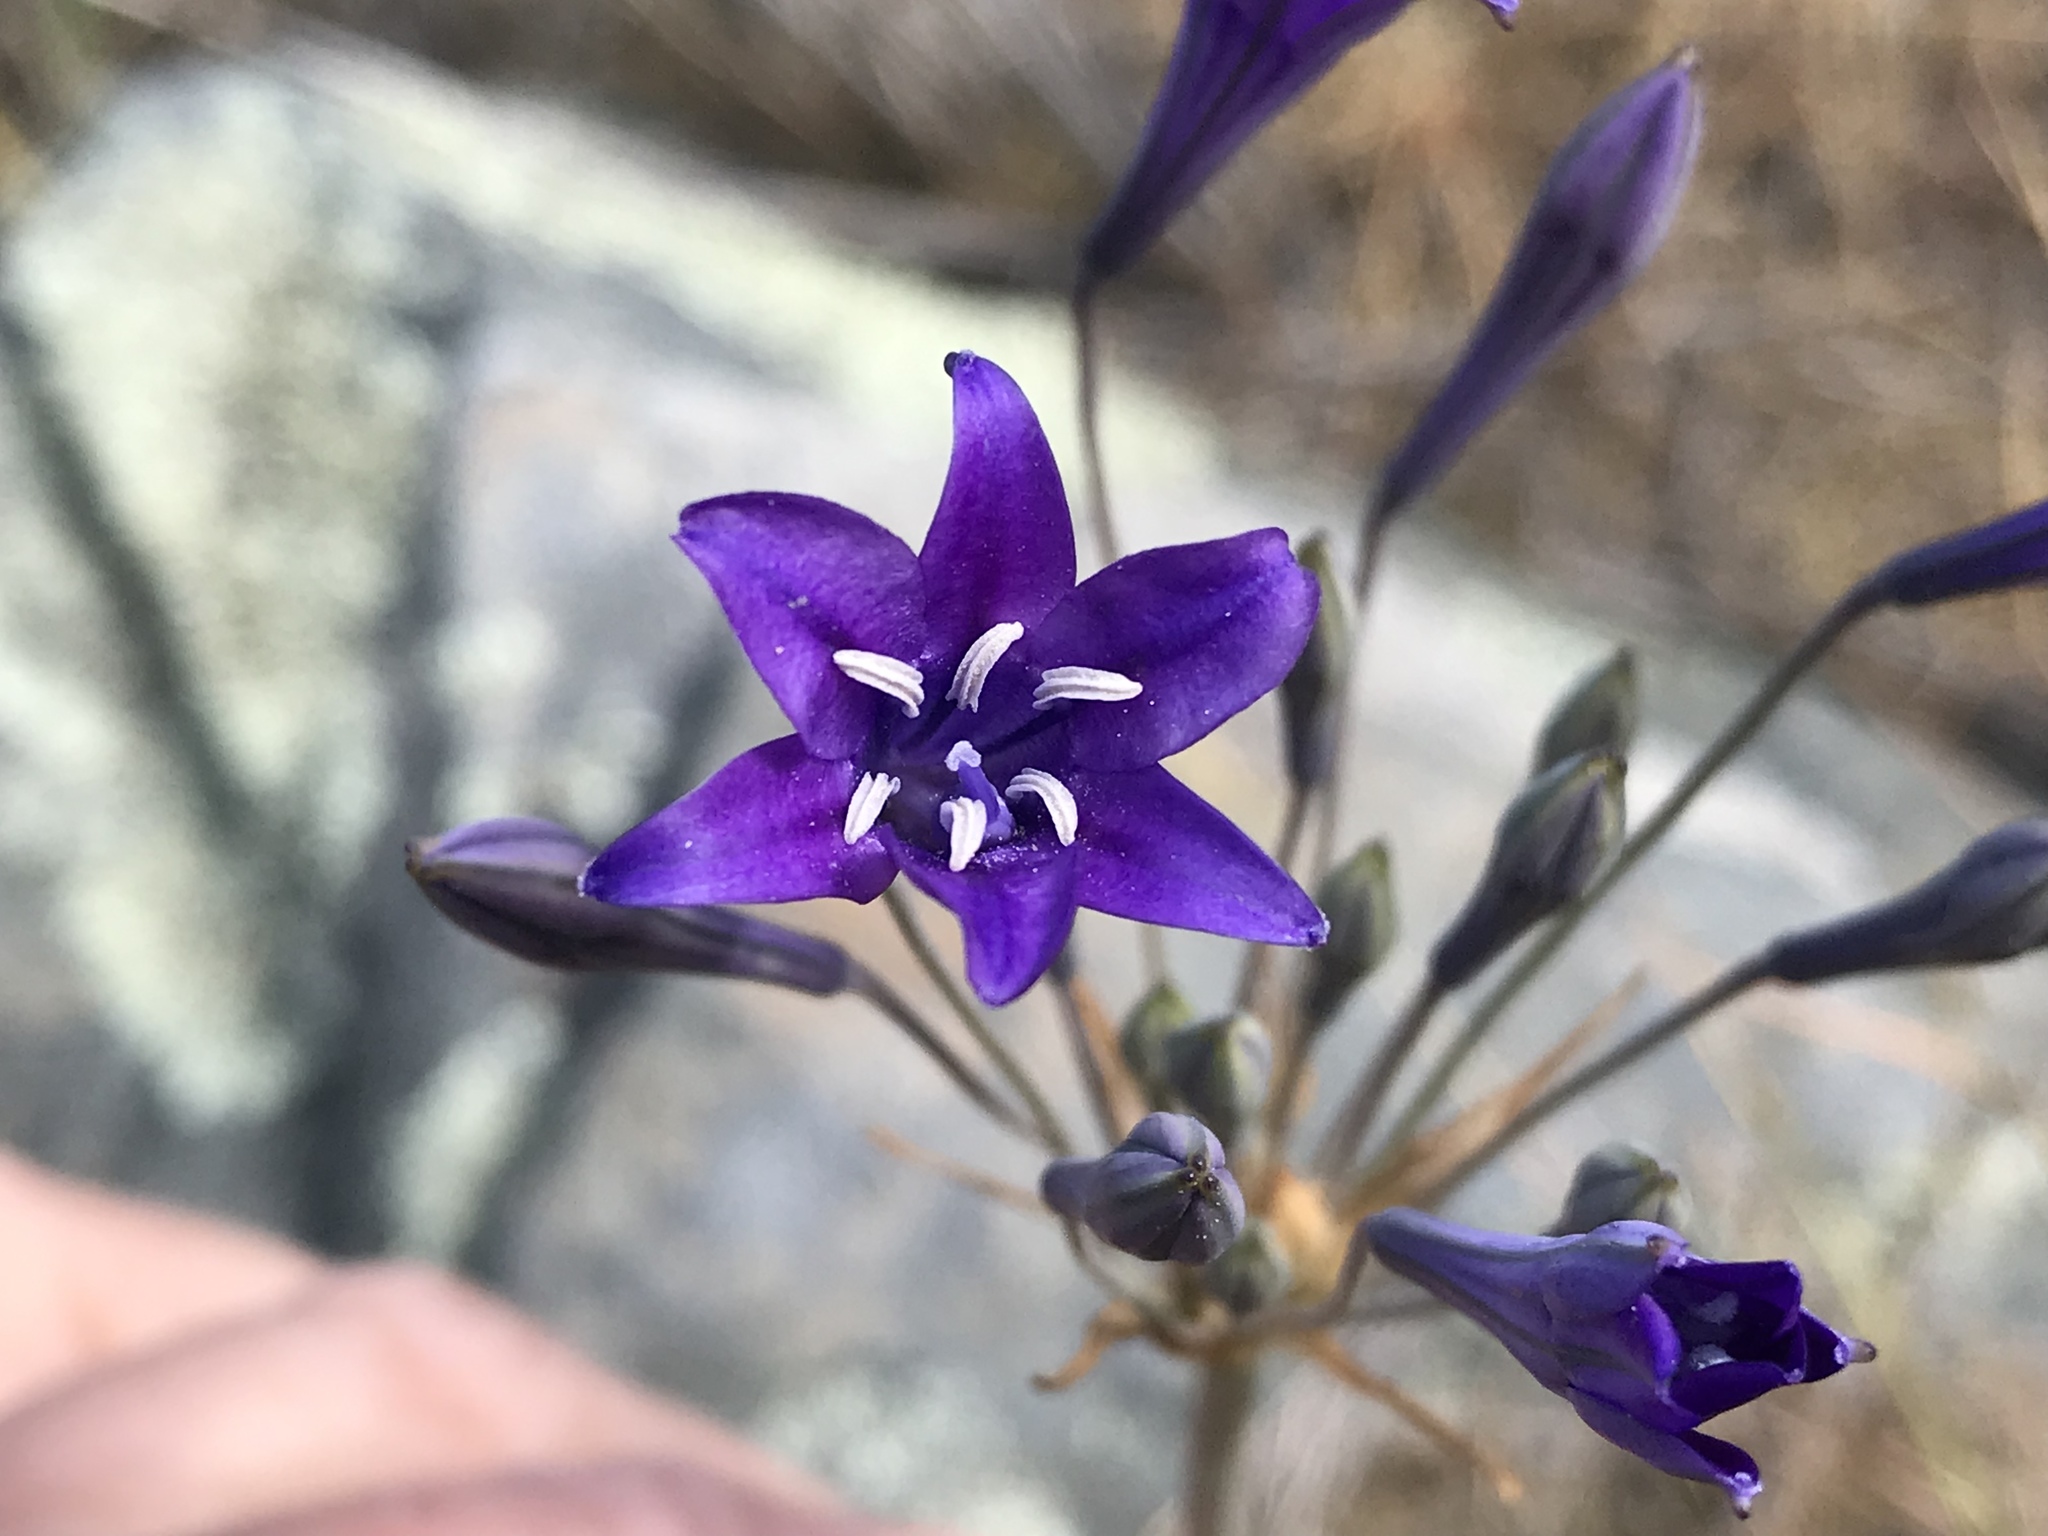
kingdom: Plantae
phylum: Tracheophyta
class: Liliopsida
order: Asparagales
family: Asparagaceae
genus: Triteleia
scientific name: Triteleia laxa
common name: Triplet-lily
